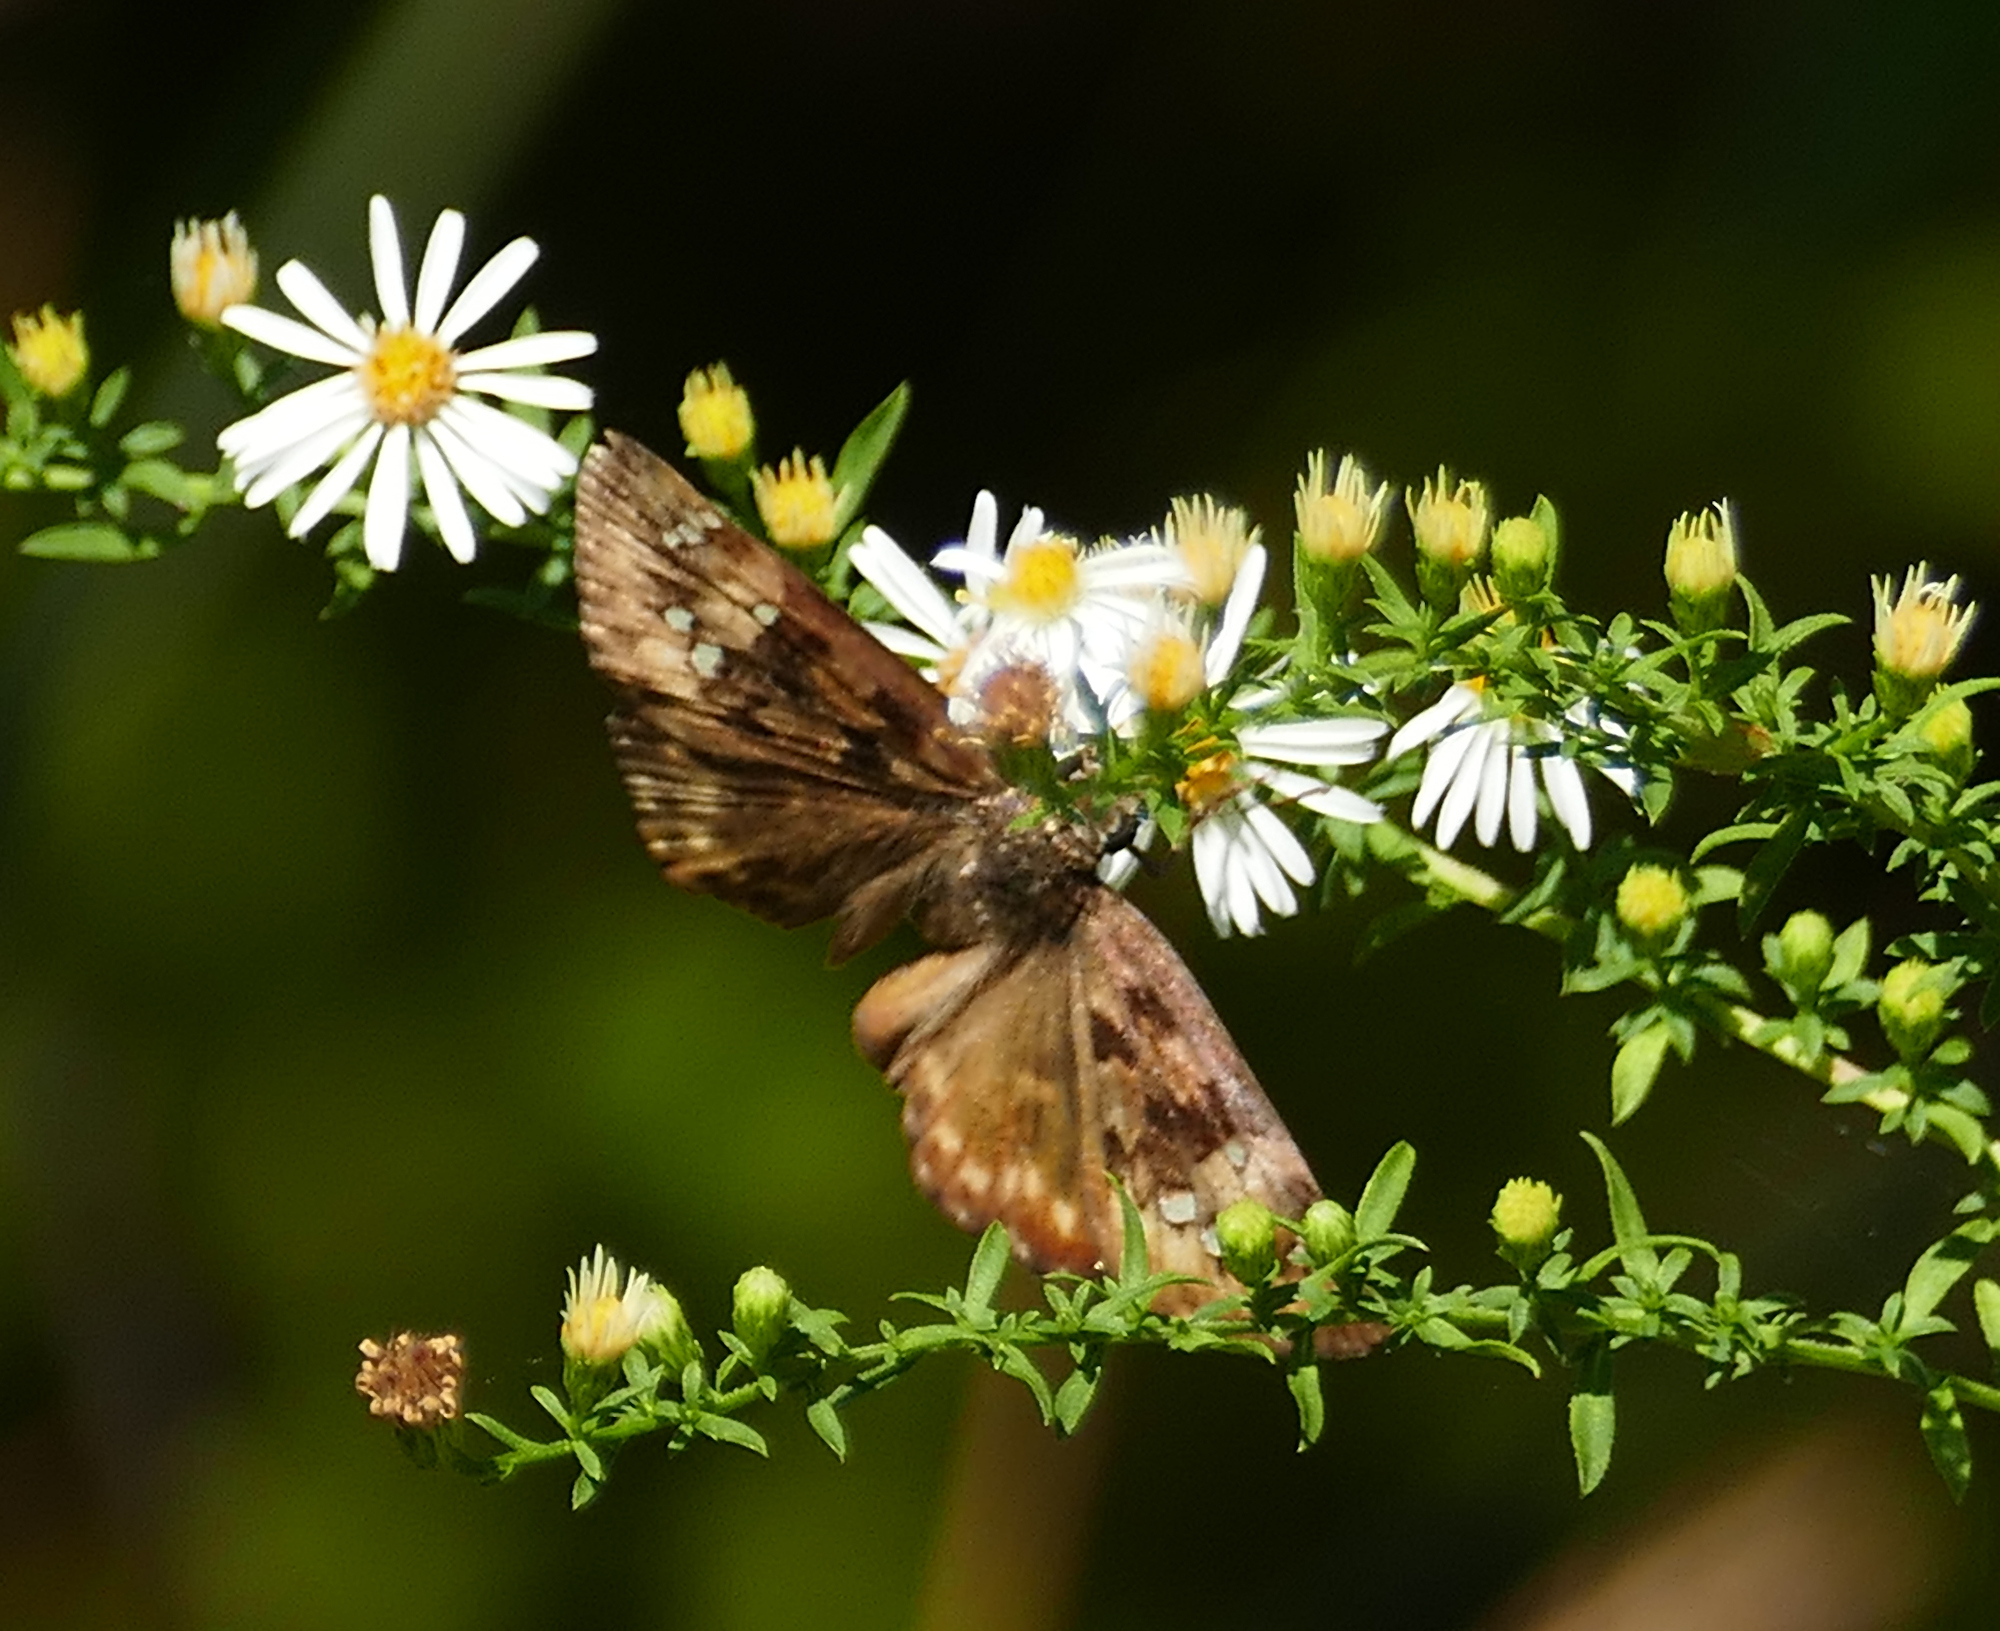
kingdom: Animalia
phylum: Arthropoda
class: Insecta
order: Lepidoptera
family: Hesperiidae
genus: Erynnis
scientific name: Erynnis horatius
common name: Horace's duskywing
